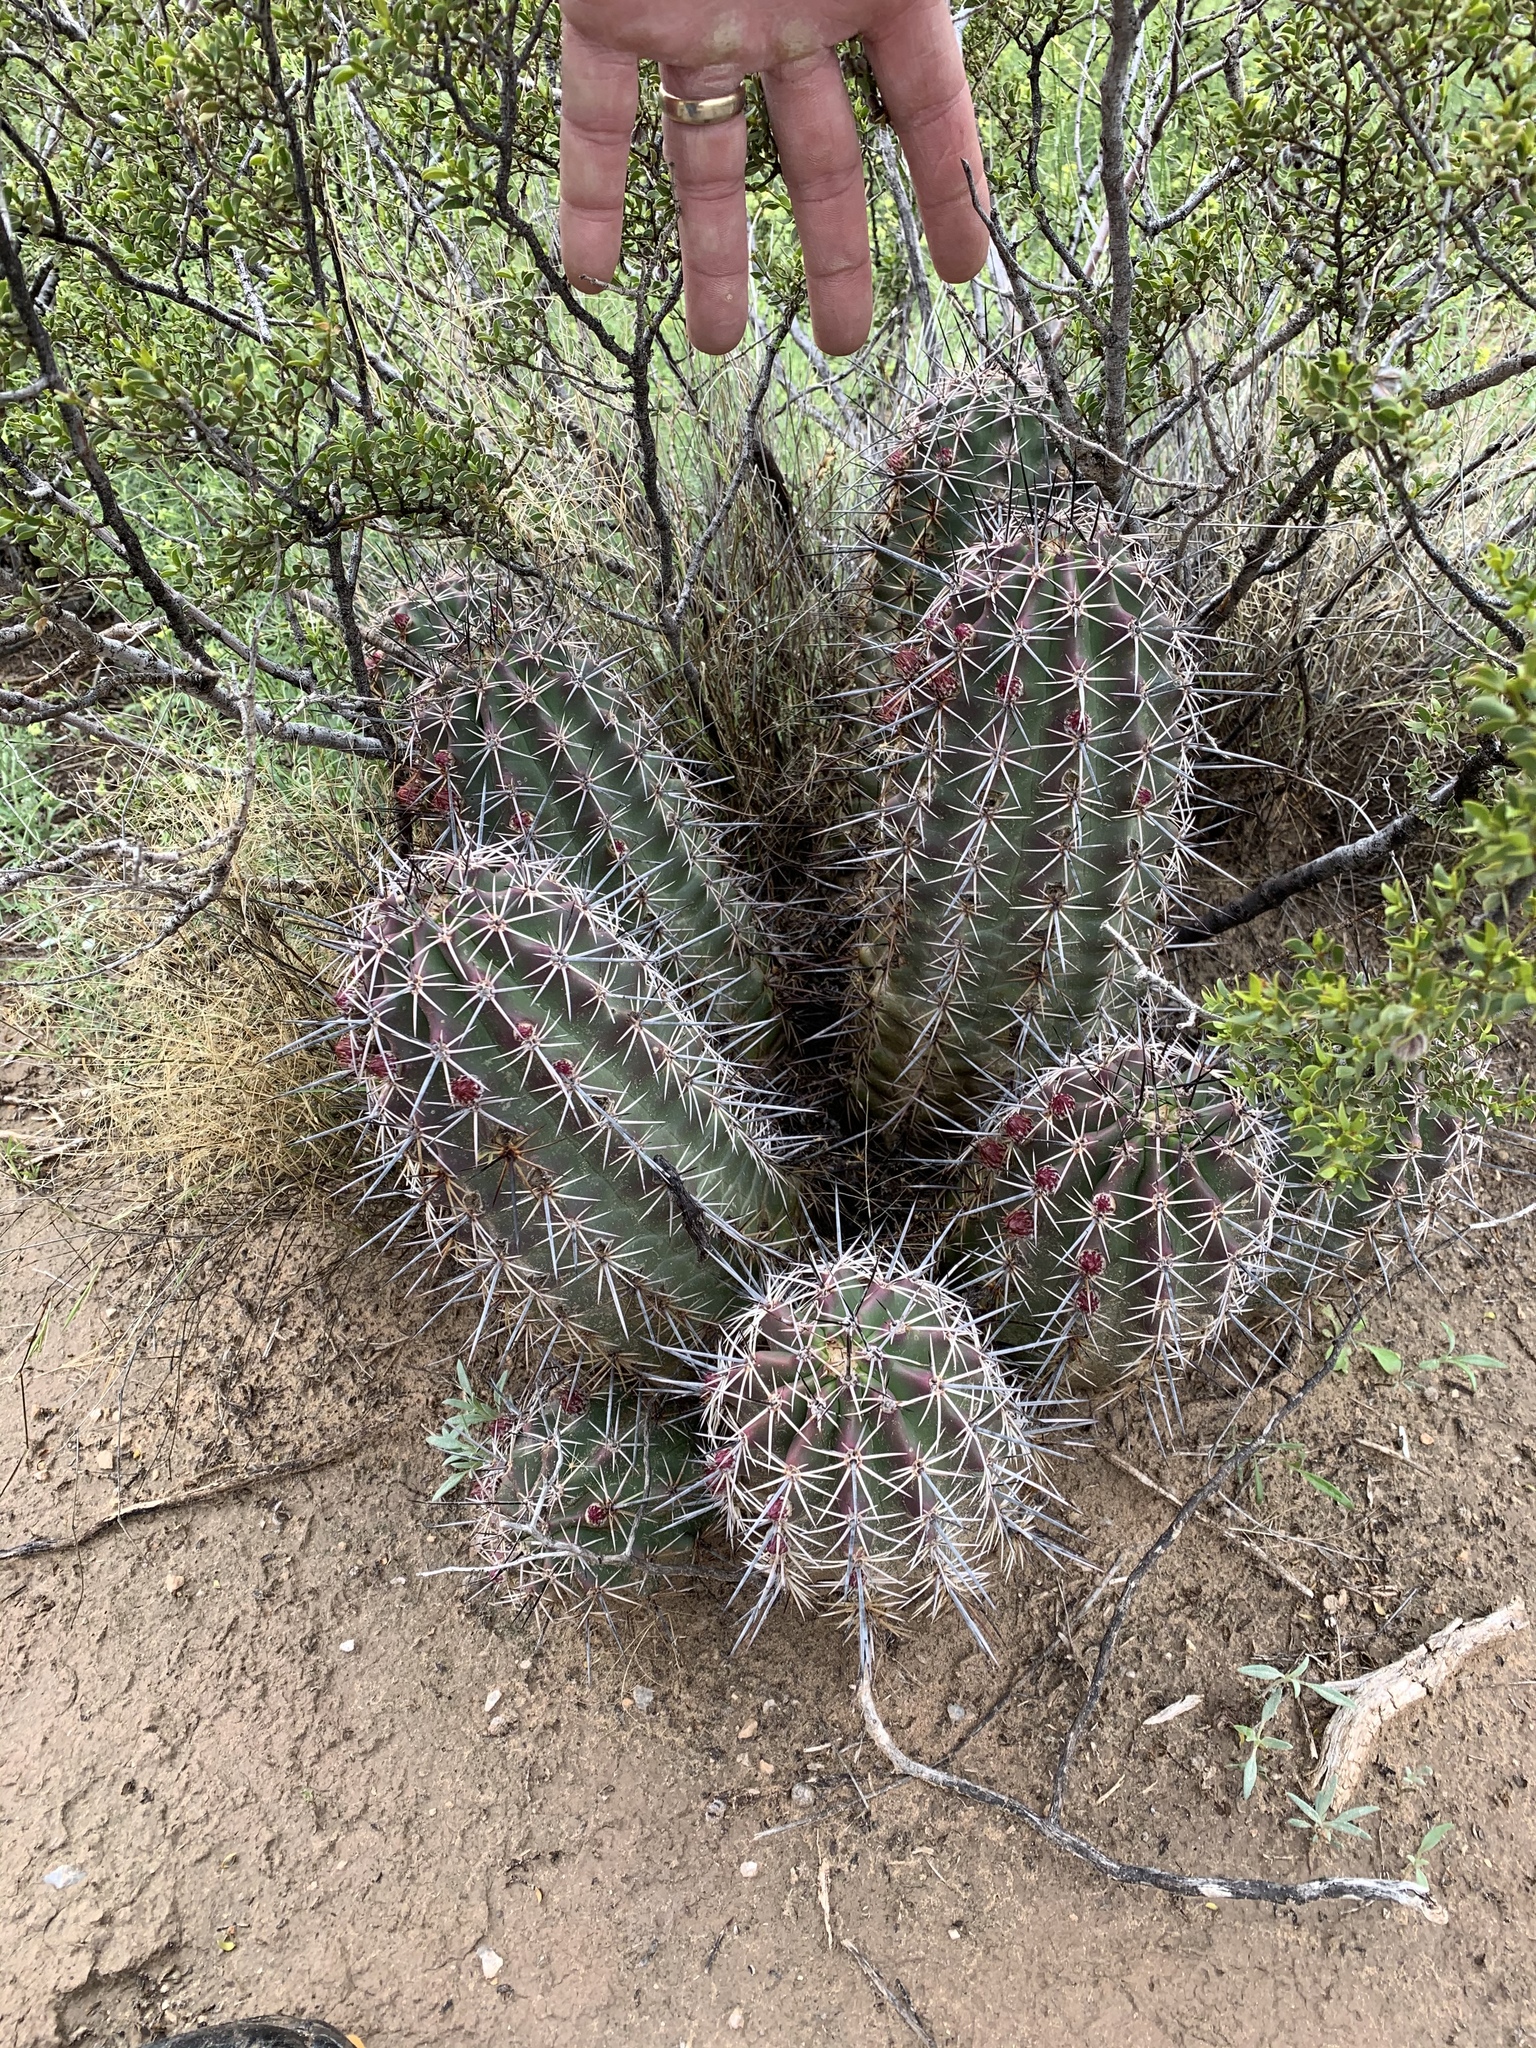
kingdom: Plantae
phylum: Tracheophyta
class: Magnoliopsida
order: Caryophyllales
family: Cactaceae
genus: Echinocereus
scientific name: Echinocereus coccineus
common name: Scarlet hedgehog cactus
